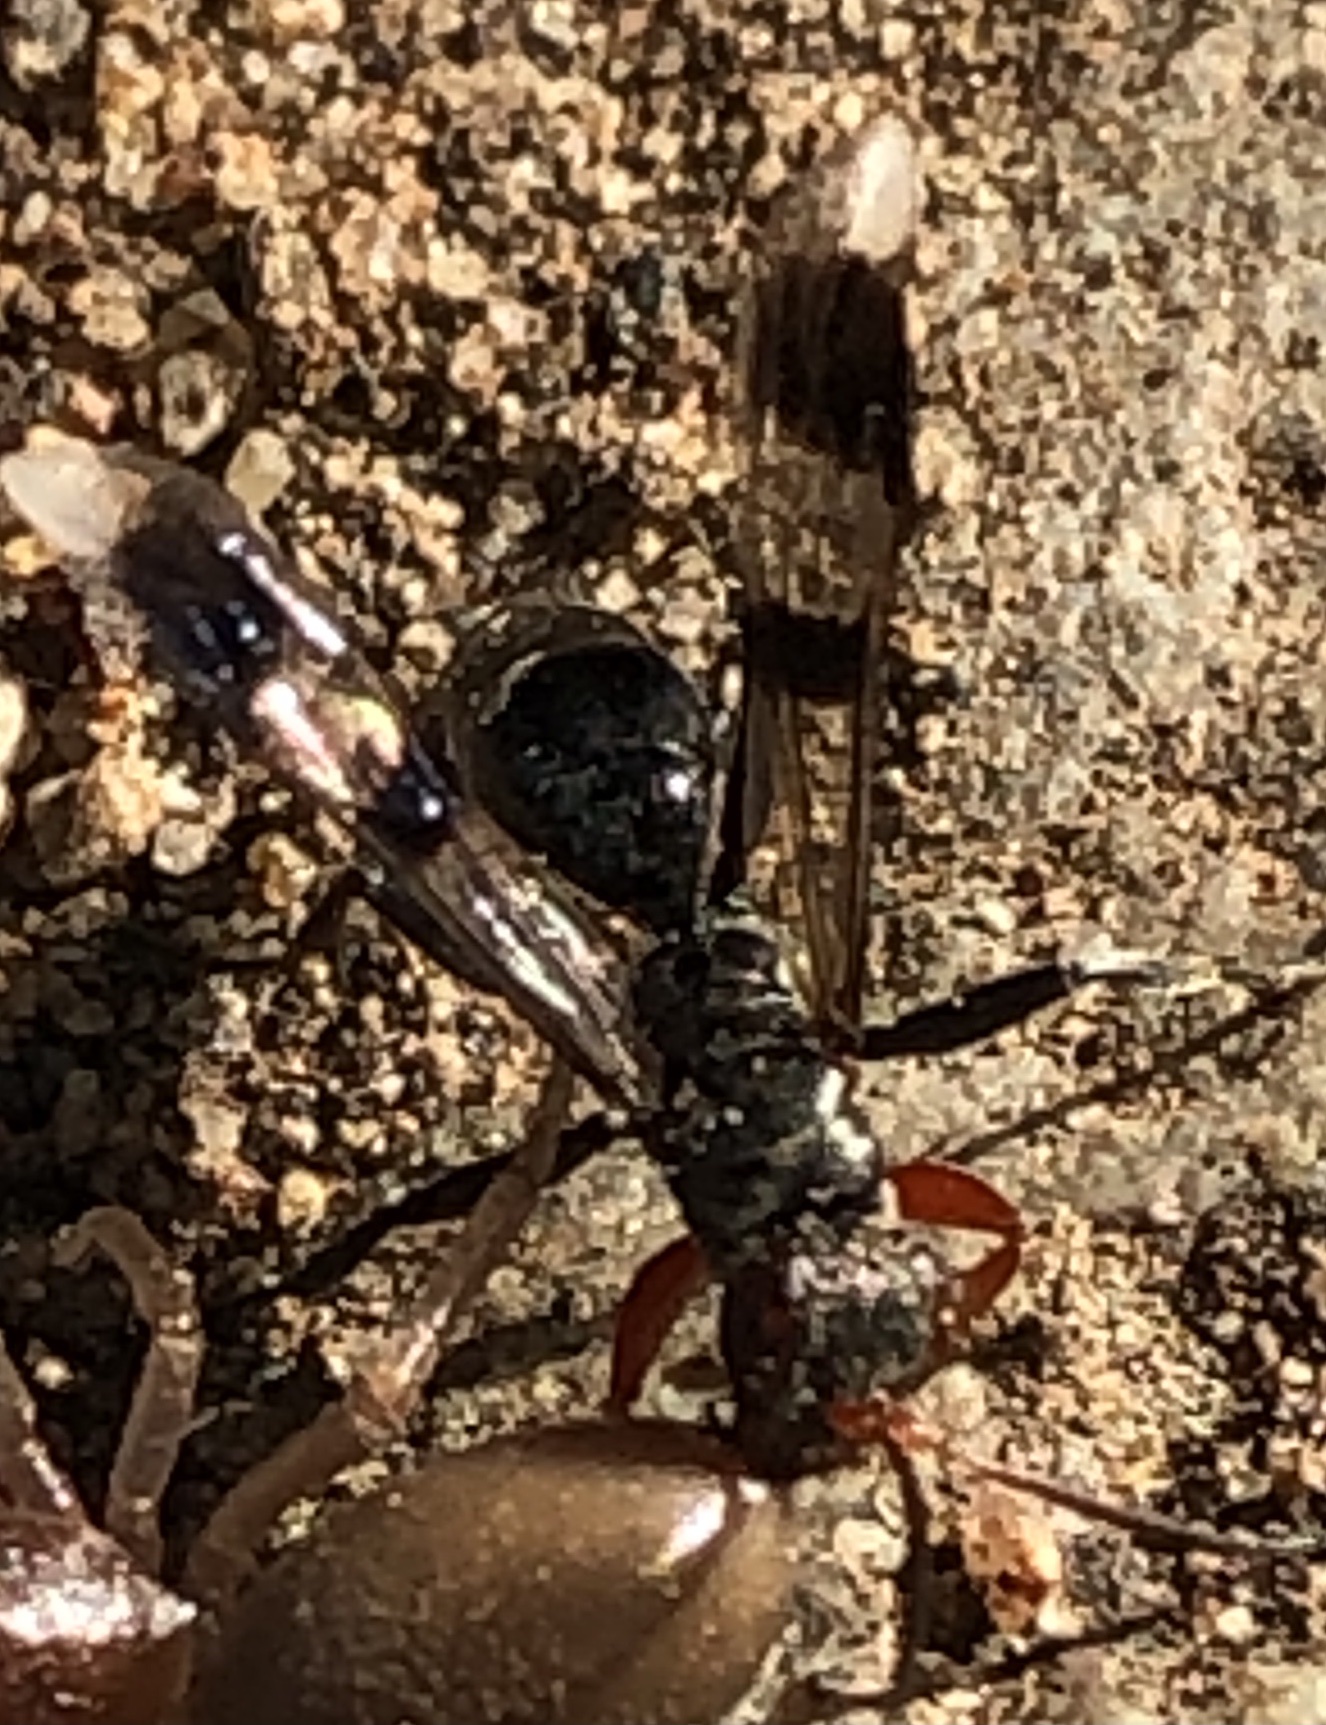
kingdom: Animalia
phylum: Arthropoda
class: Insecta
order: Hymenoptera
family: Pompilidae
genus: Dipogon
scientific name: Dipogon calipterus
